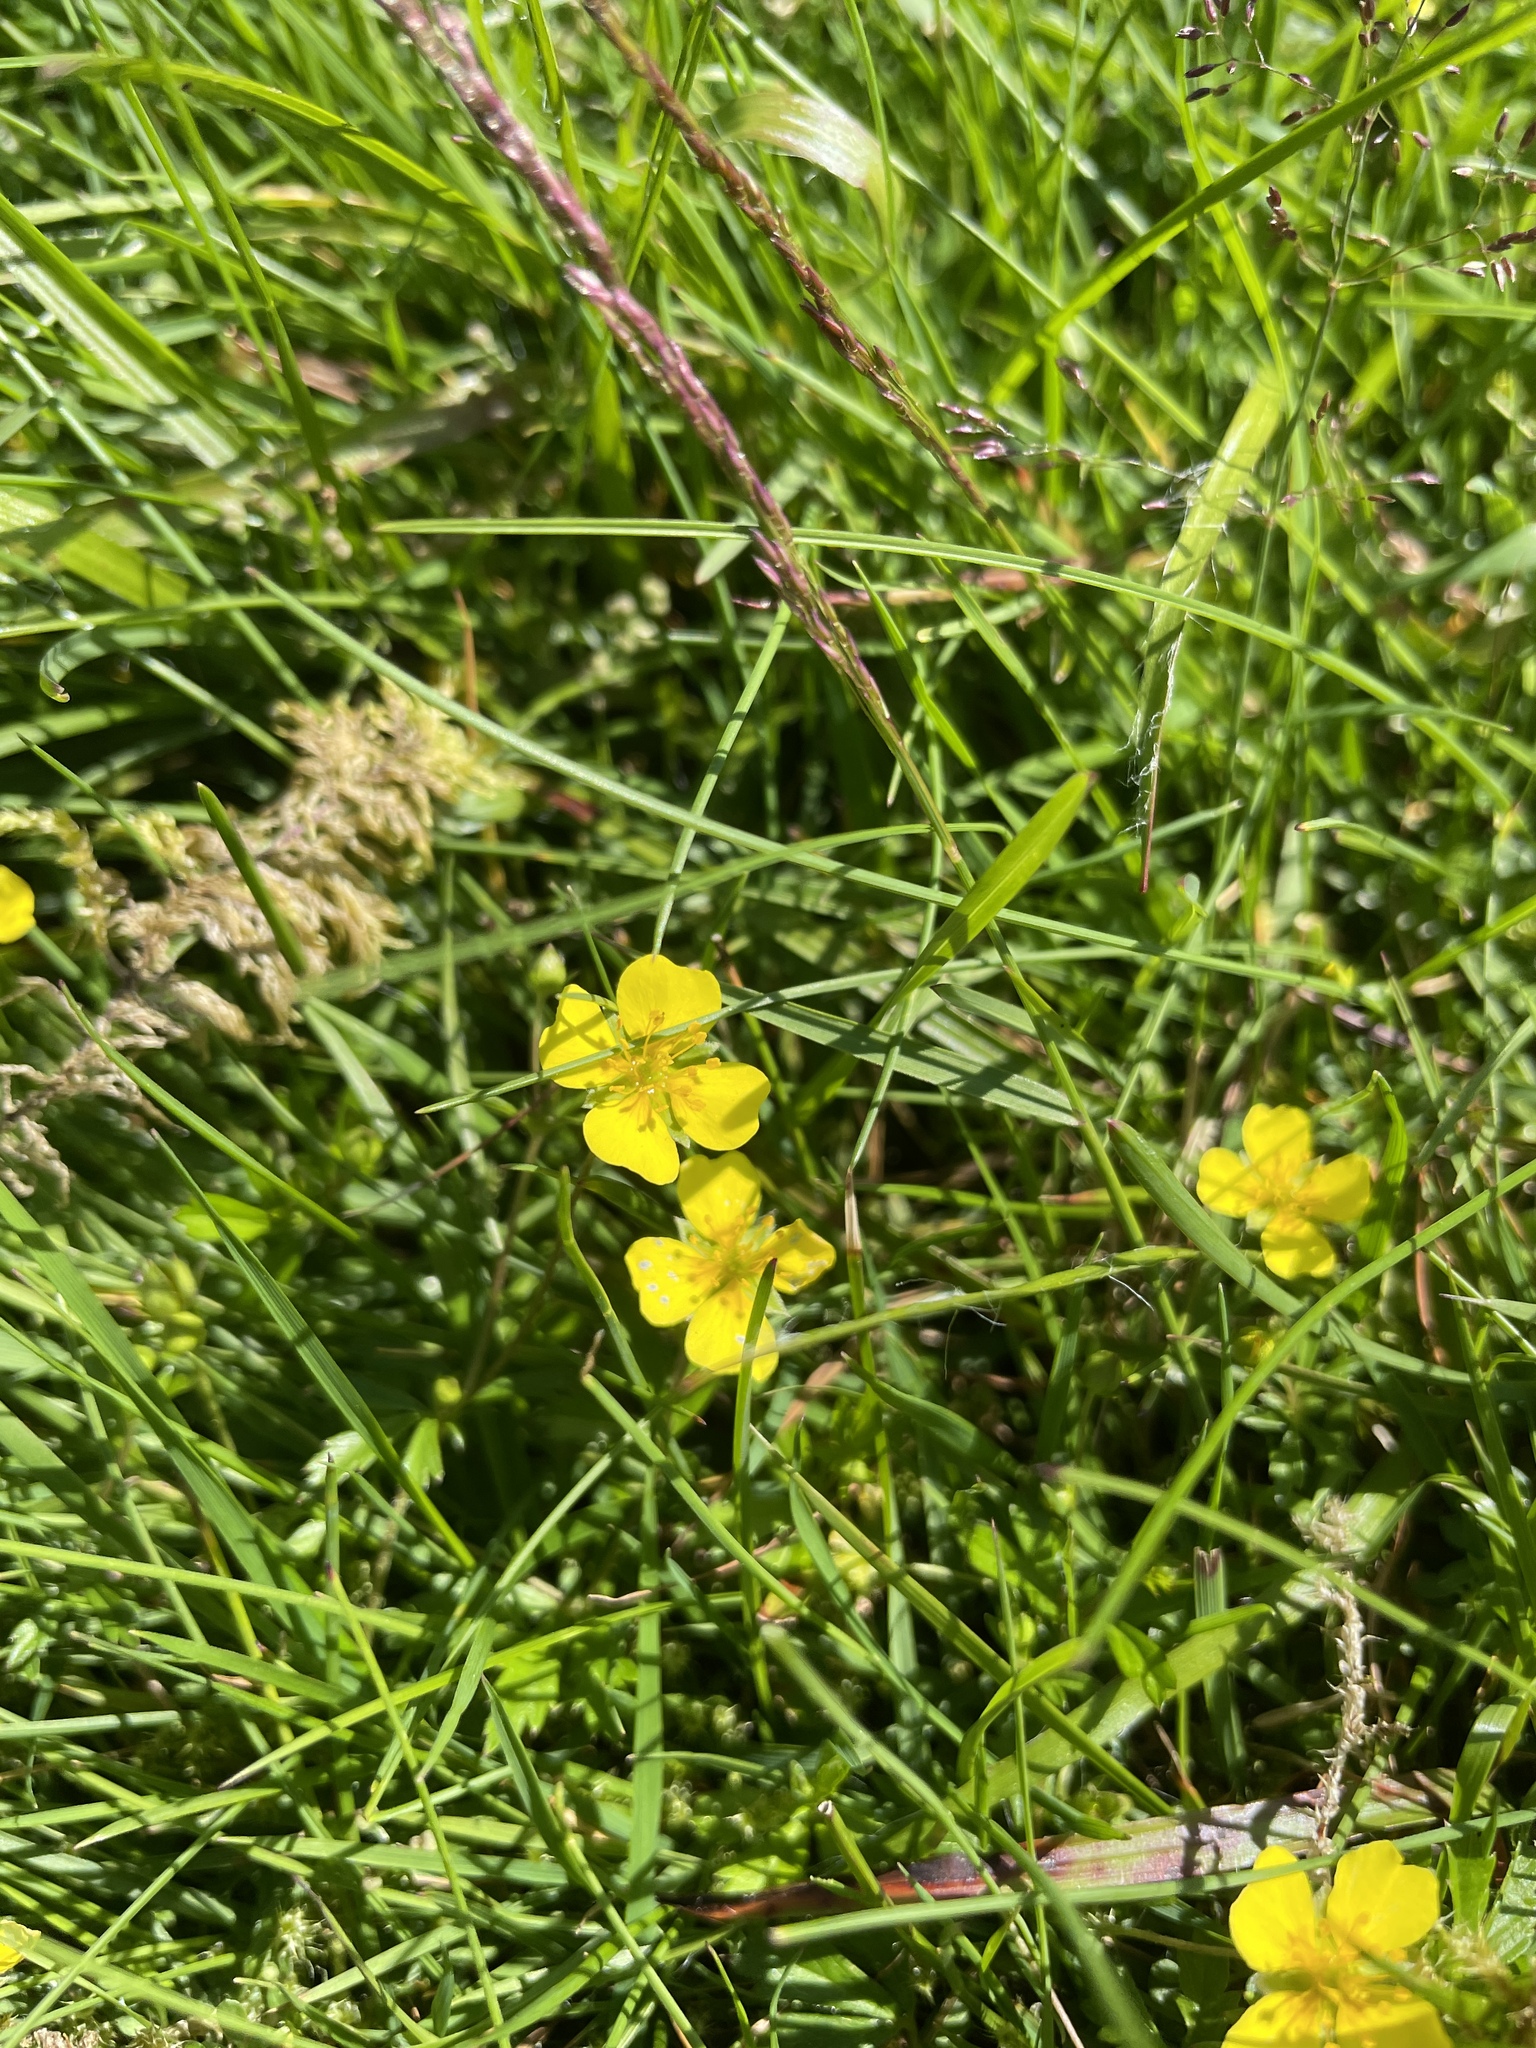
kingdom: Plantae
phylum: Tracheophyta
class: Magnoliopsida
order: Rosales
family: Rosaceae
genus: Potentilla
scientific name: Potentilla erecta
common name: Tormentil
